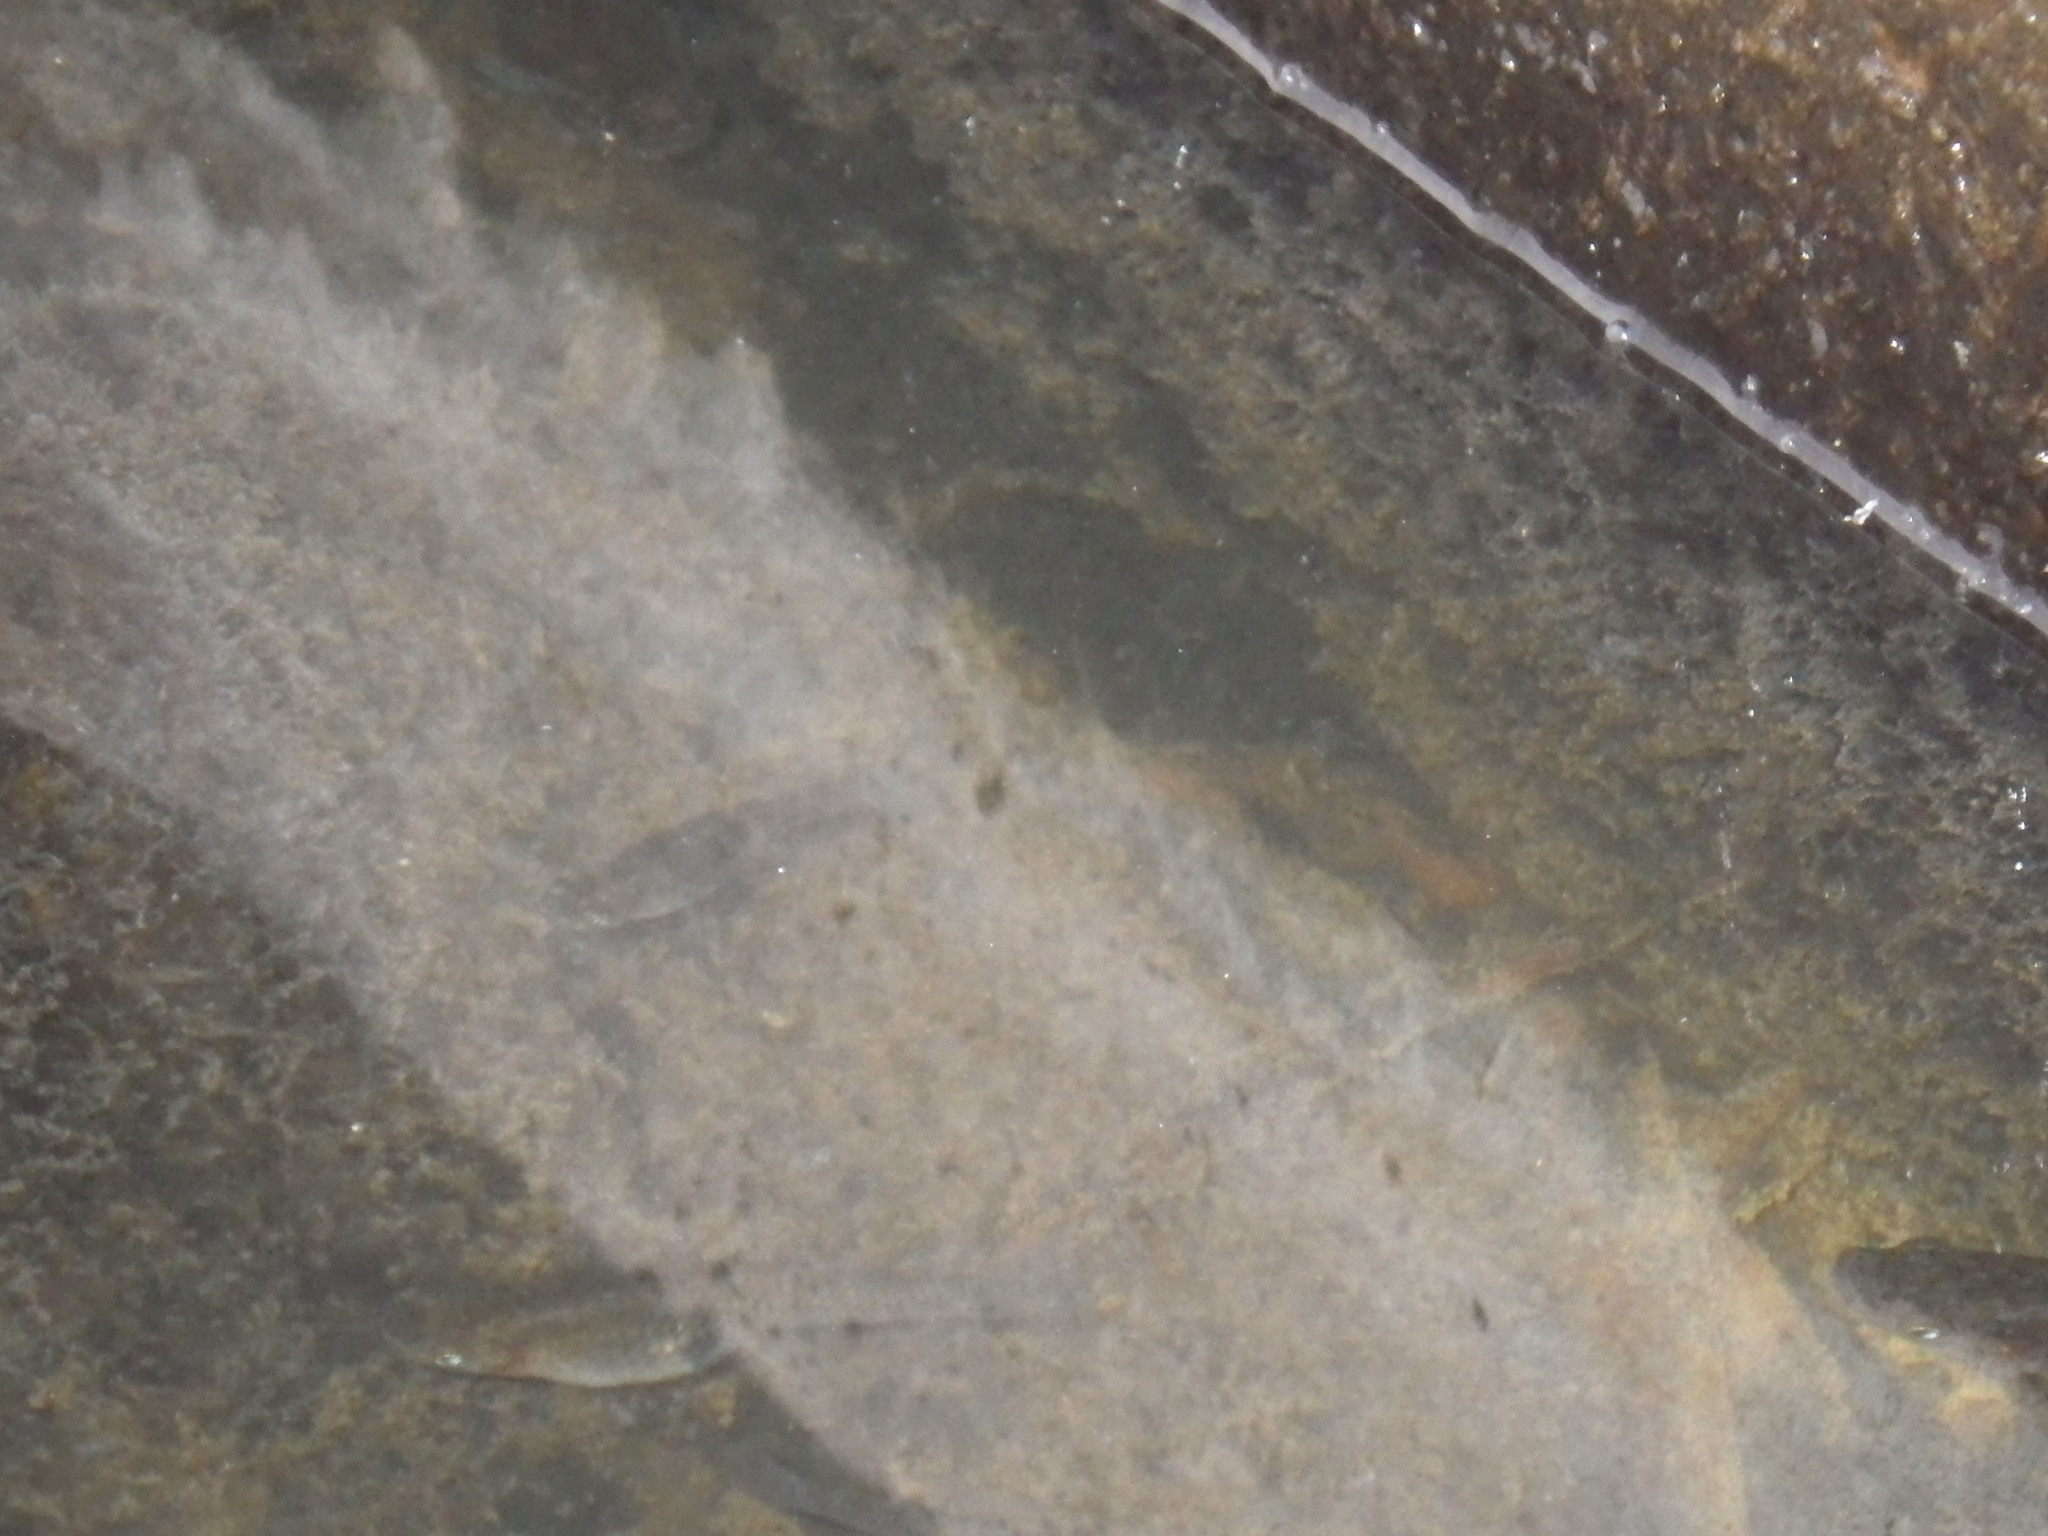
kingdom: Animalia
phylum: Chordata
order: Cyprinodontiformes
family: Poeciliidae
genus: Gambusia
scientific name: Gambusia affinis
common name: Mosquitofish
